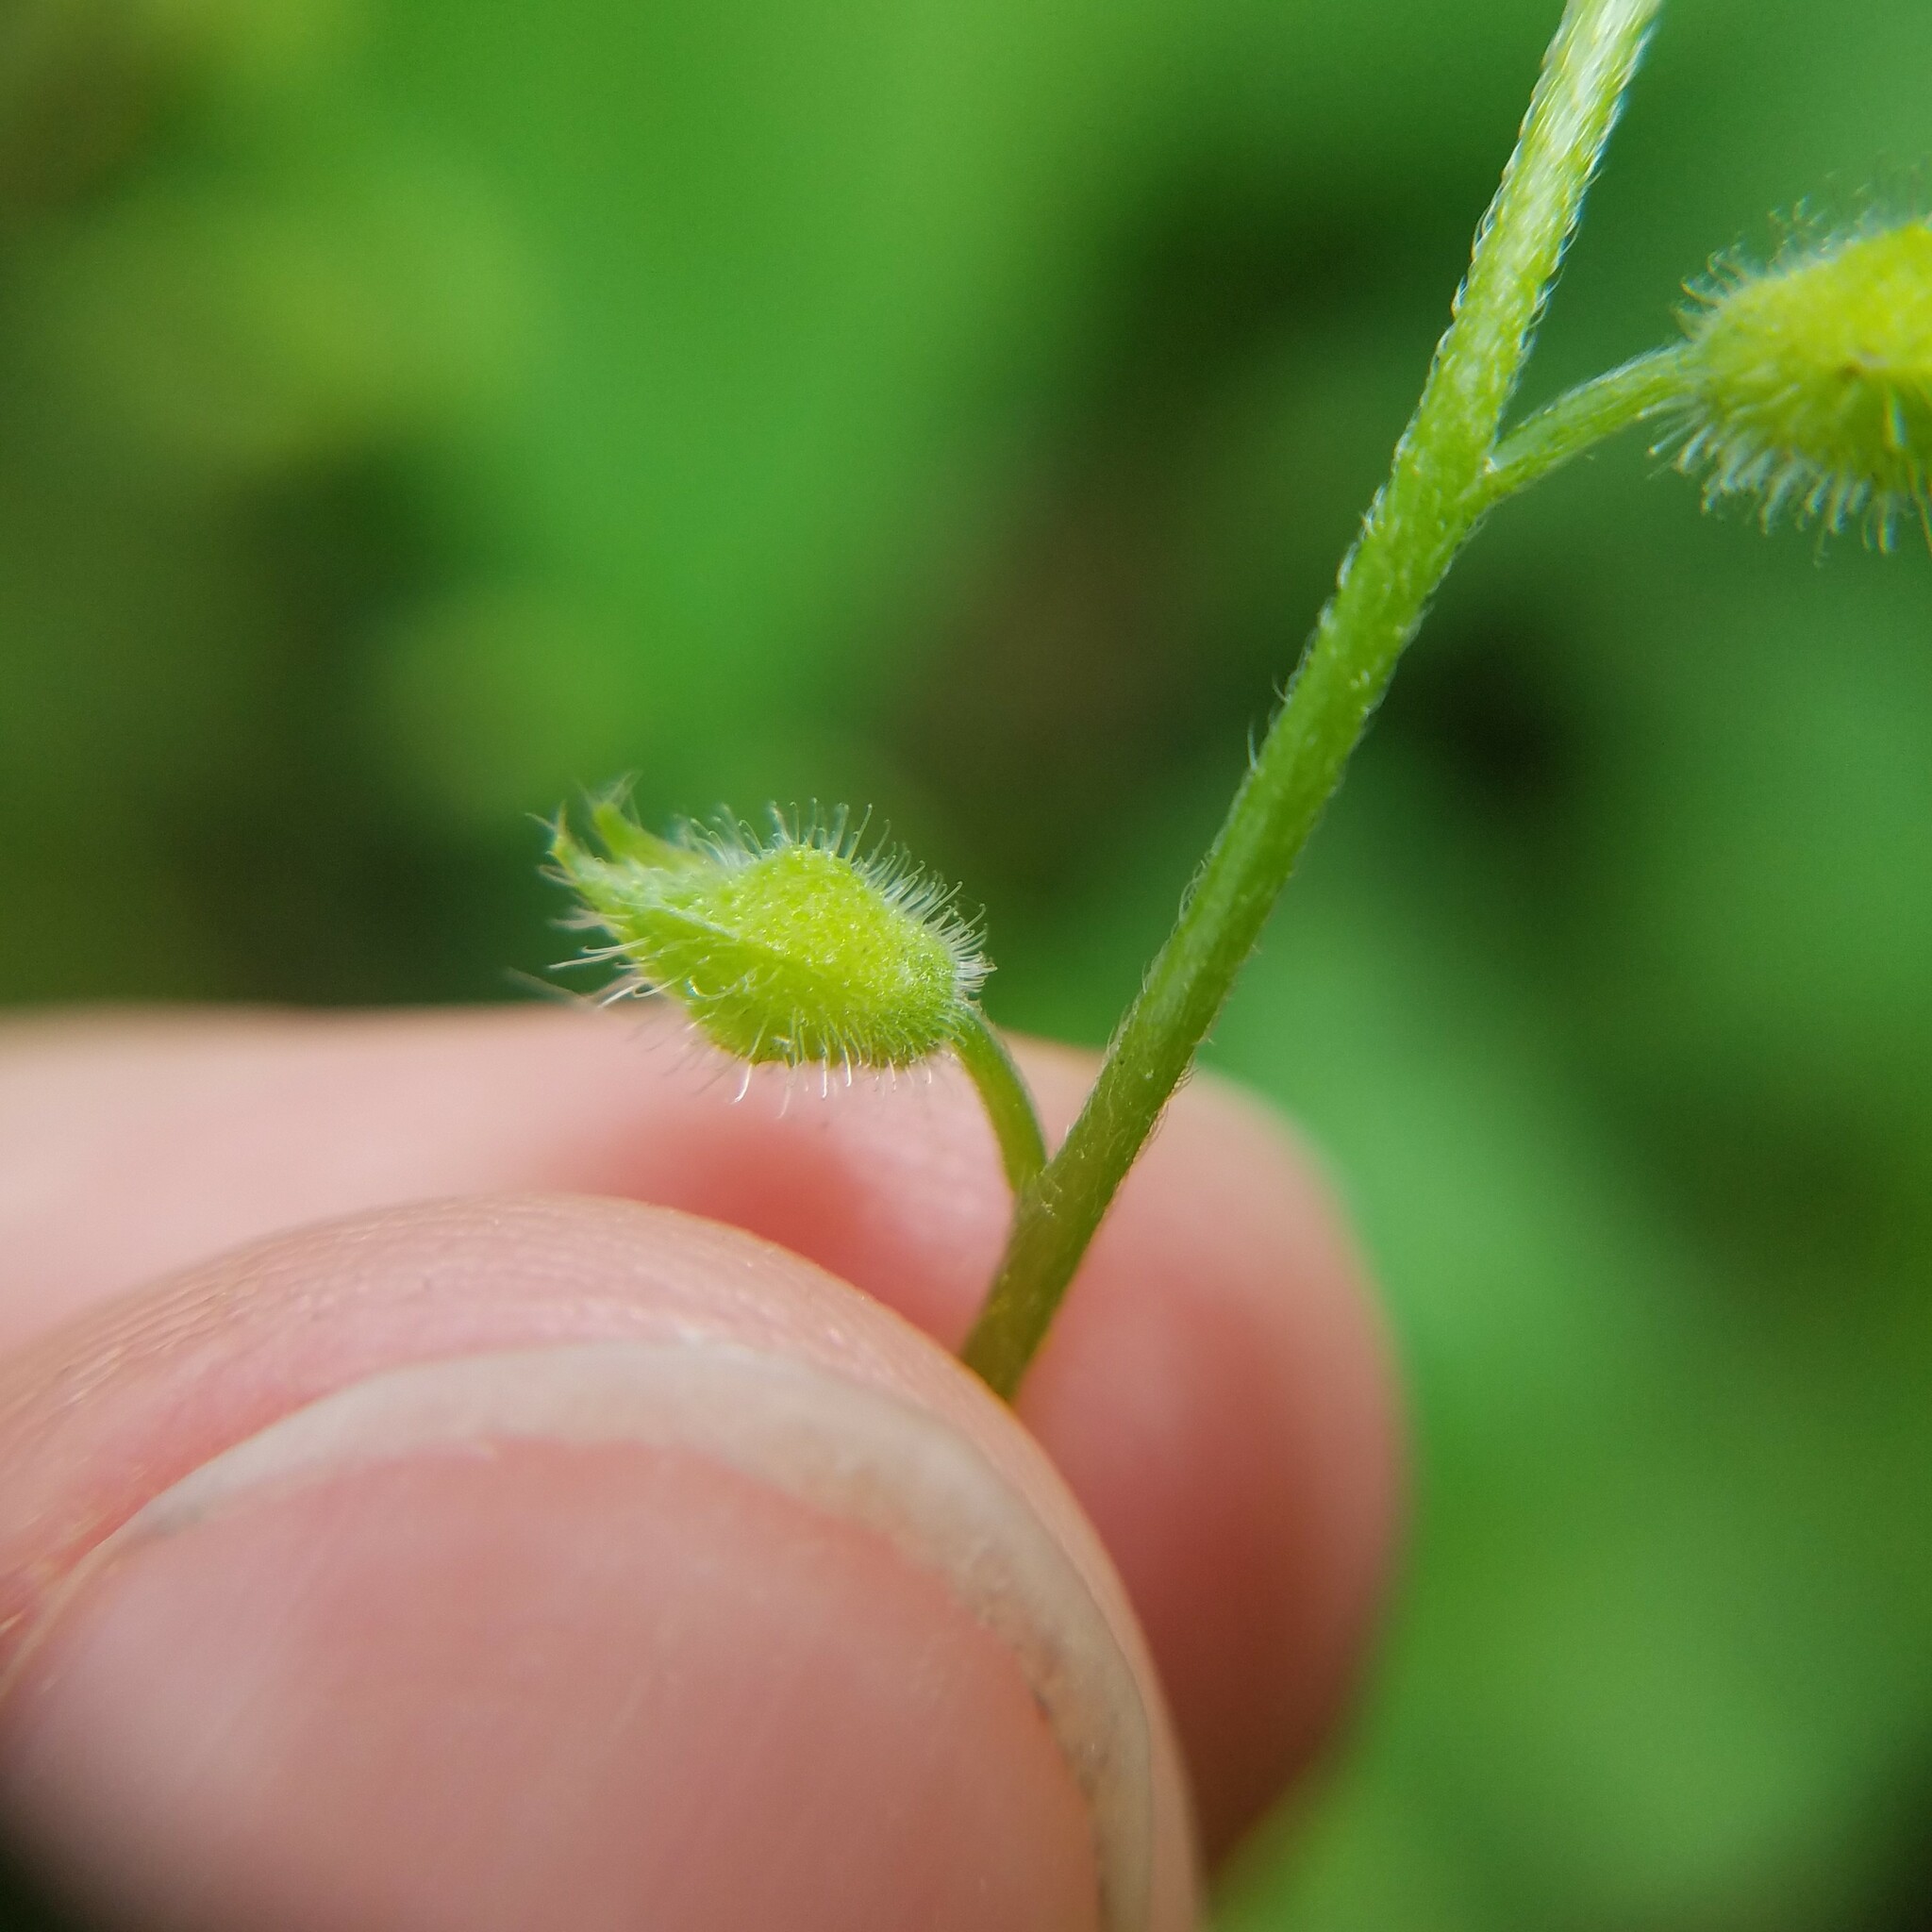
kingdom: Plantae
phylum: Tracheophyta
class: Magnoliopsida
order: Boraginales
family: Boraginaceae
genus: Myosotis
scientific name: Myosotis macrosperma
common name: Large-seed forget-me-not
